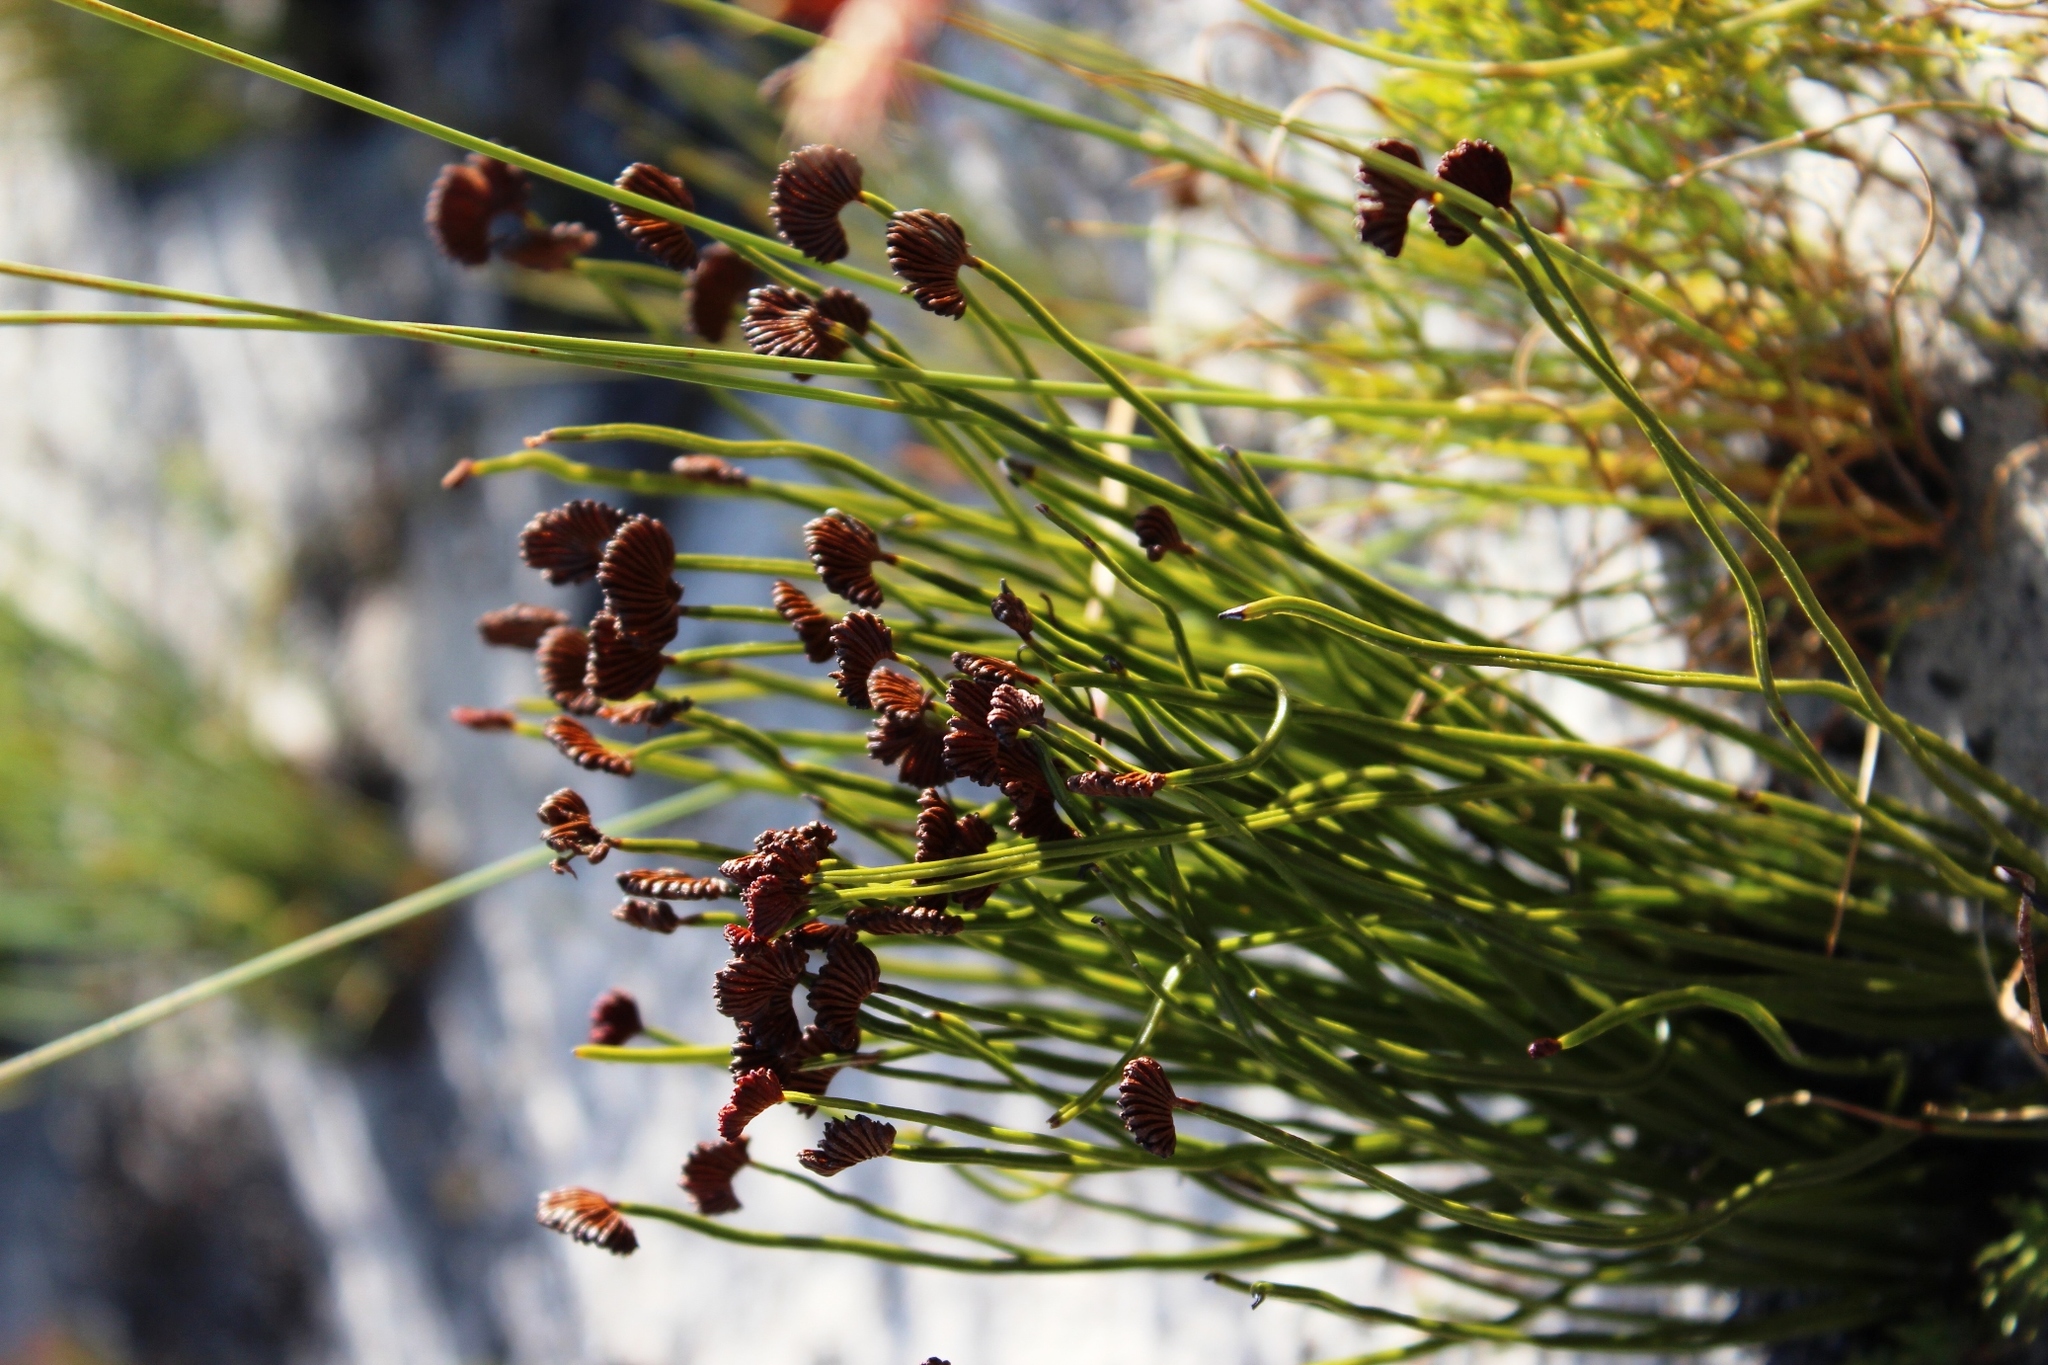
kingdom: Plantae
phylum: Tracheophyta
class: Polypodiopsida
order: Schizaeales
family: Schizaeaceae
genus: Schizaea
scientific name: Schizaea pectinata
